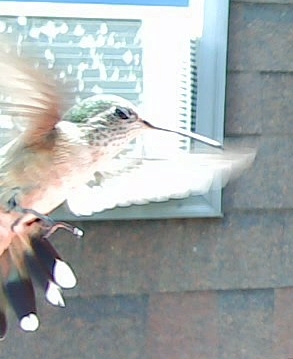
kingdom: Animalia
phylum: Chordata
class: Aves
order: Apodiformes
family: Trochilidae
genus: Selasphorus
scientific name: Selasphorus platycercus
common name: Broad-tailed hummingbird
